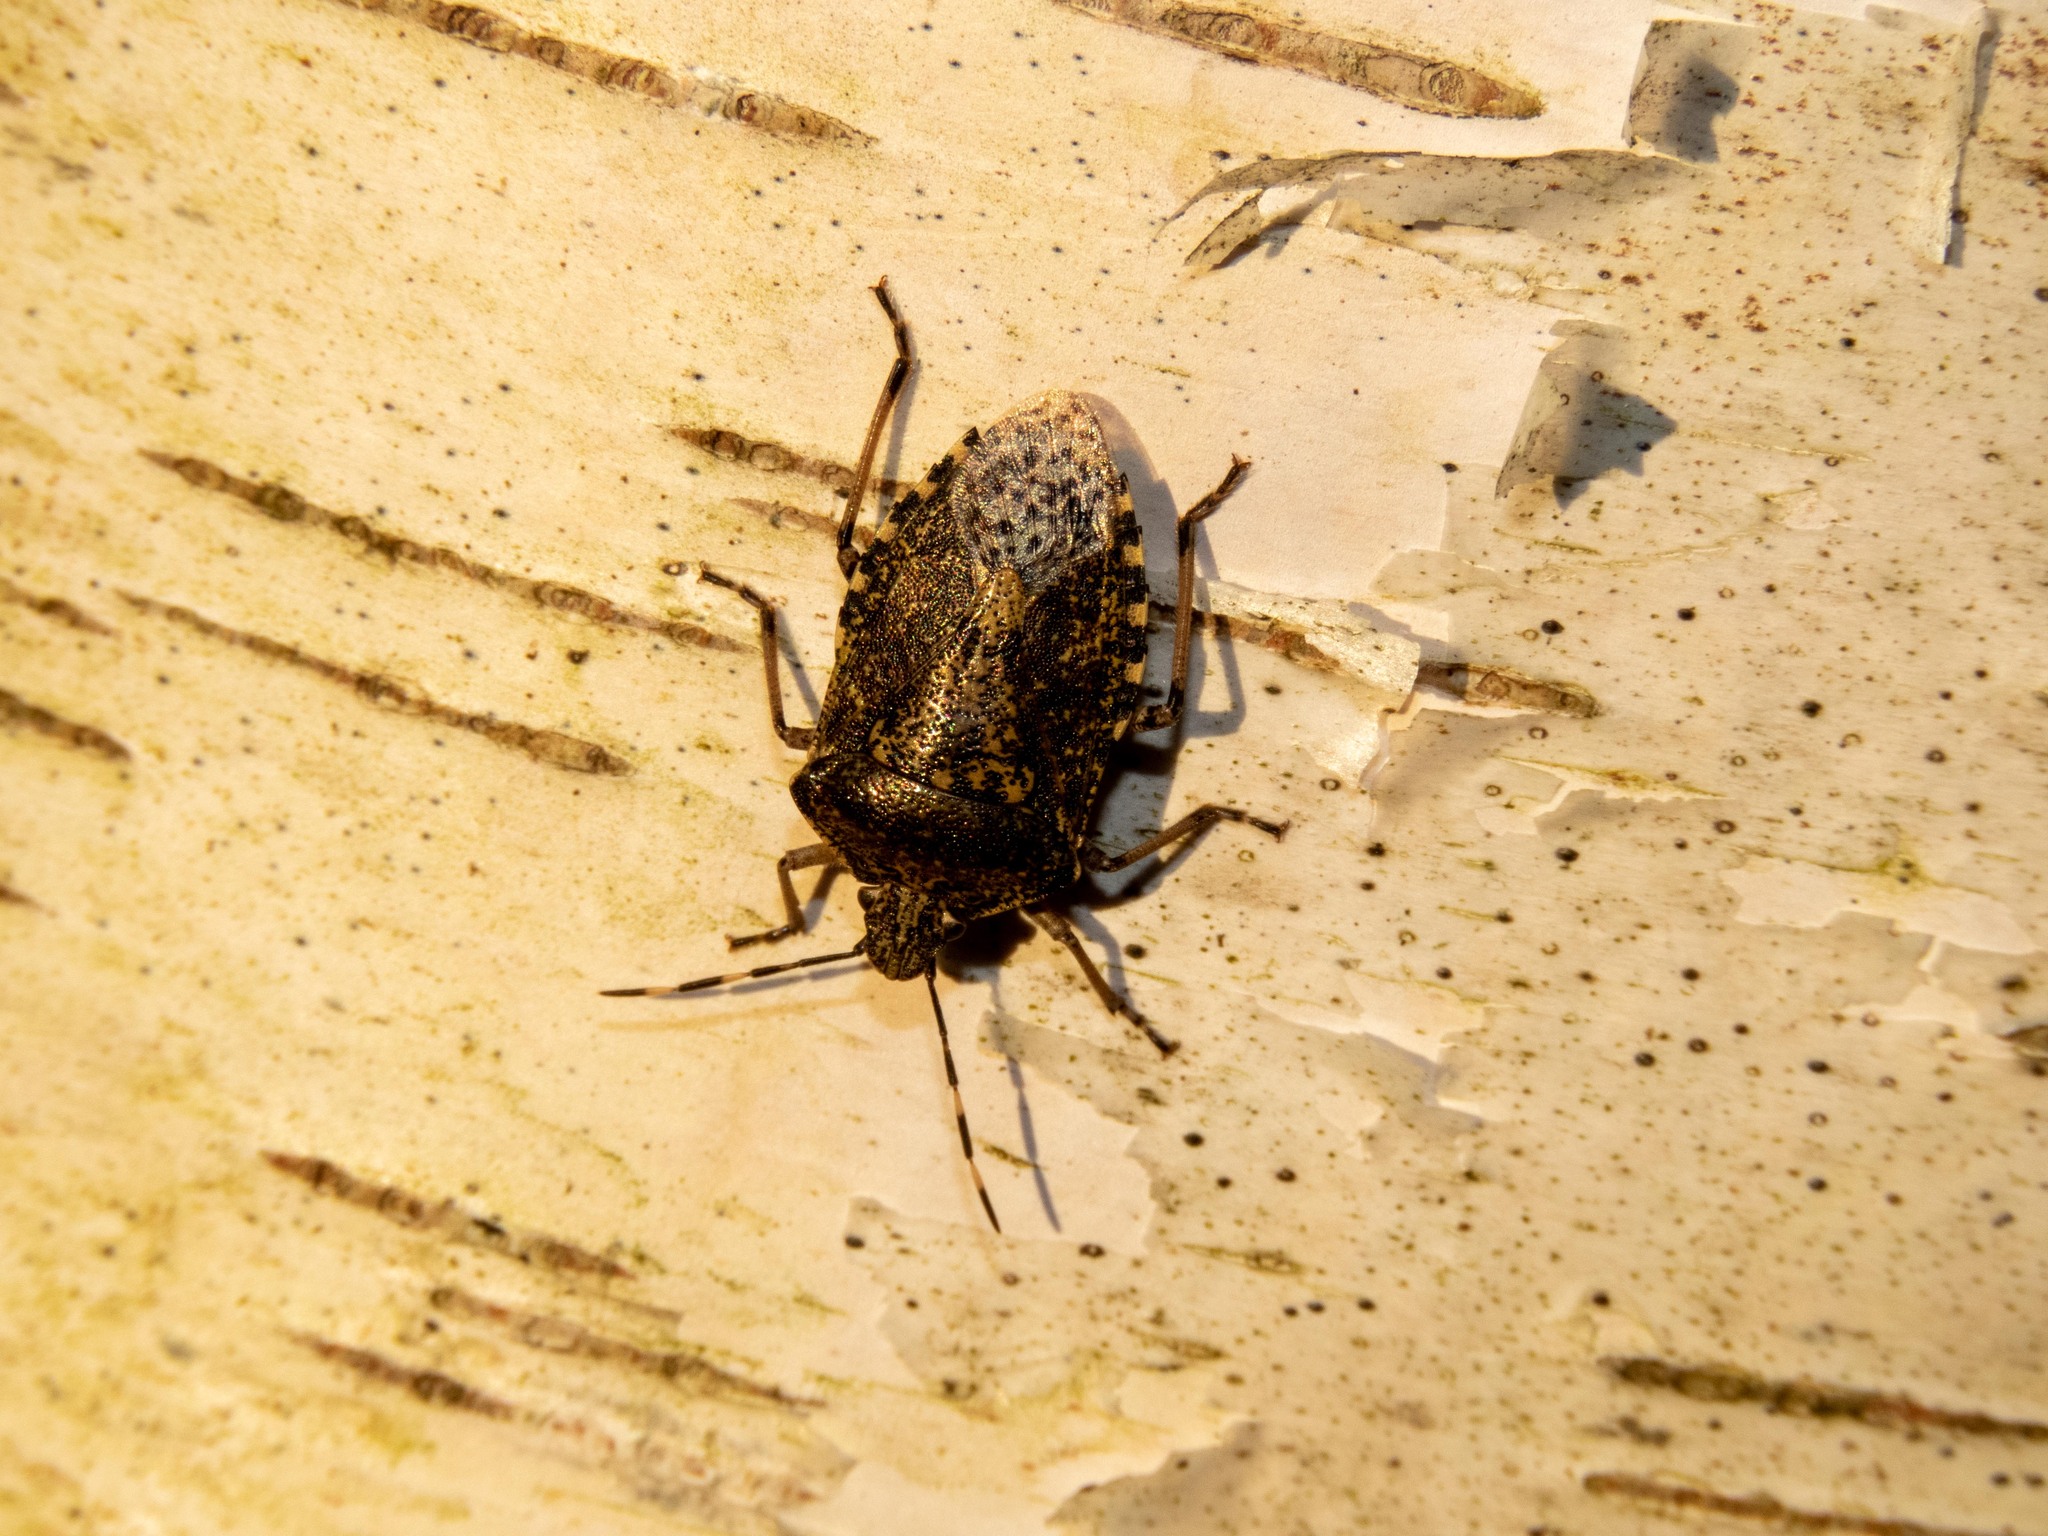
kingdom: Animalia
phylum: Arthropoda
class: Insecta
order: Hemiptera
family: Pentatomidae
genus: Rhaphigaster
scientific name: Rhaphigaster nebulosa
